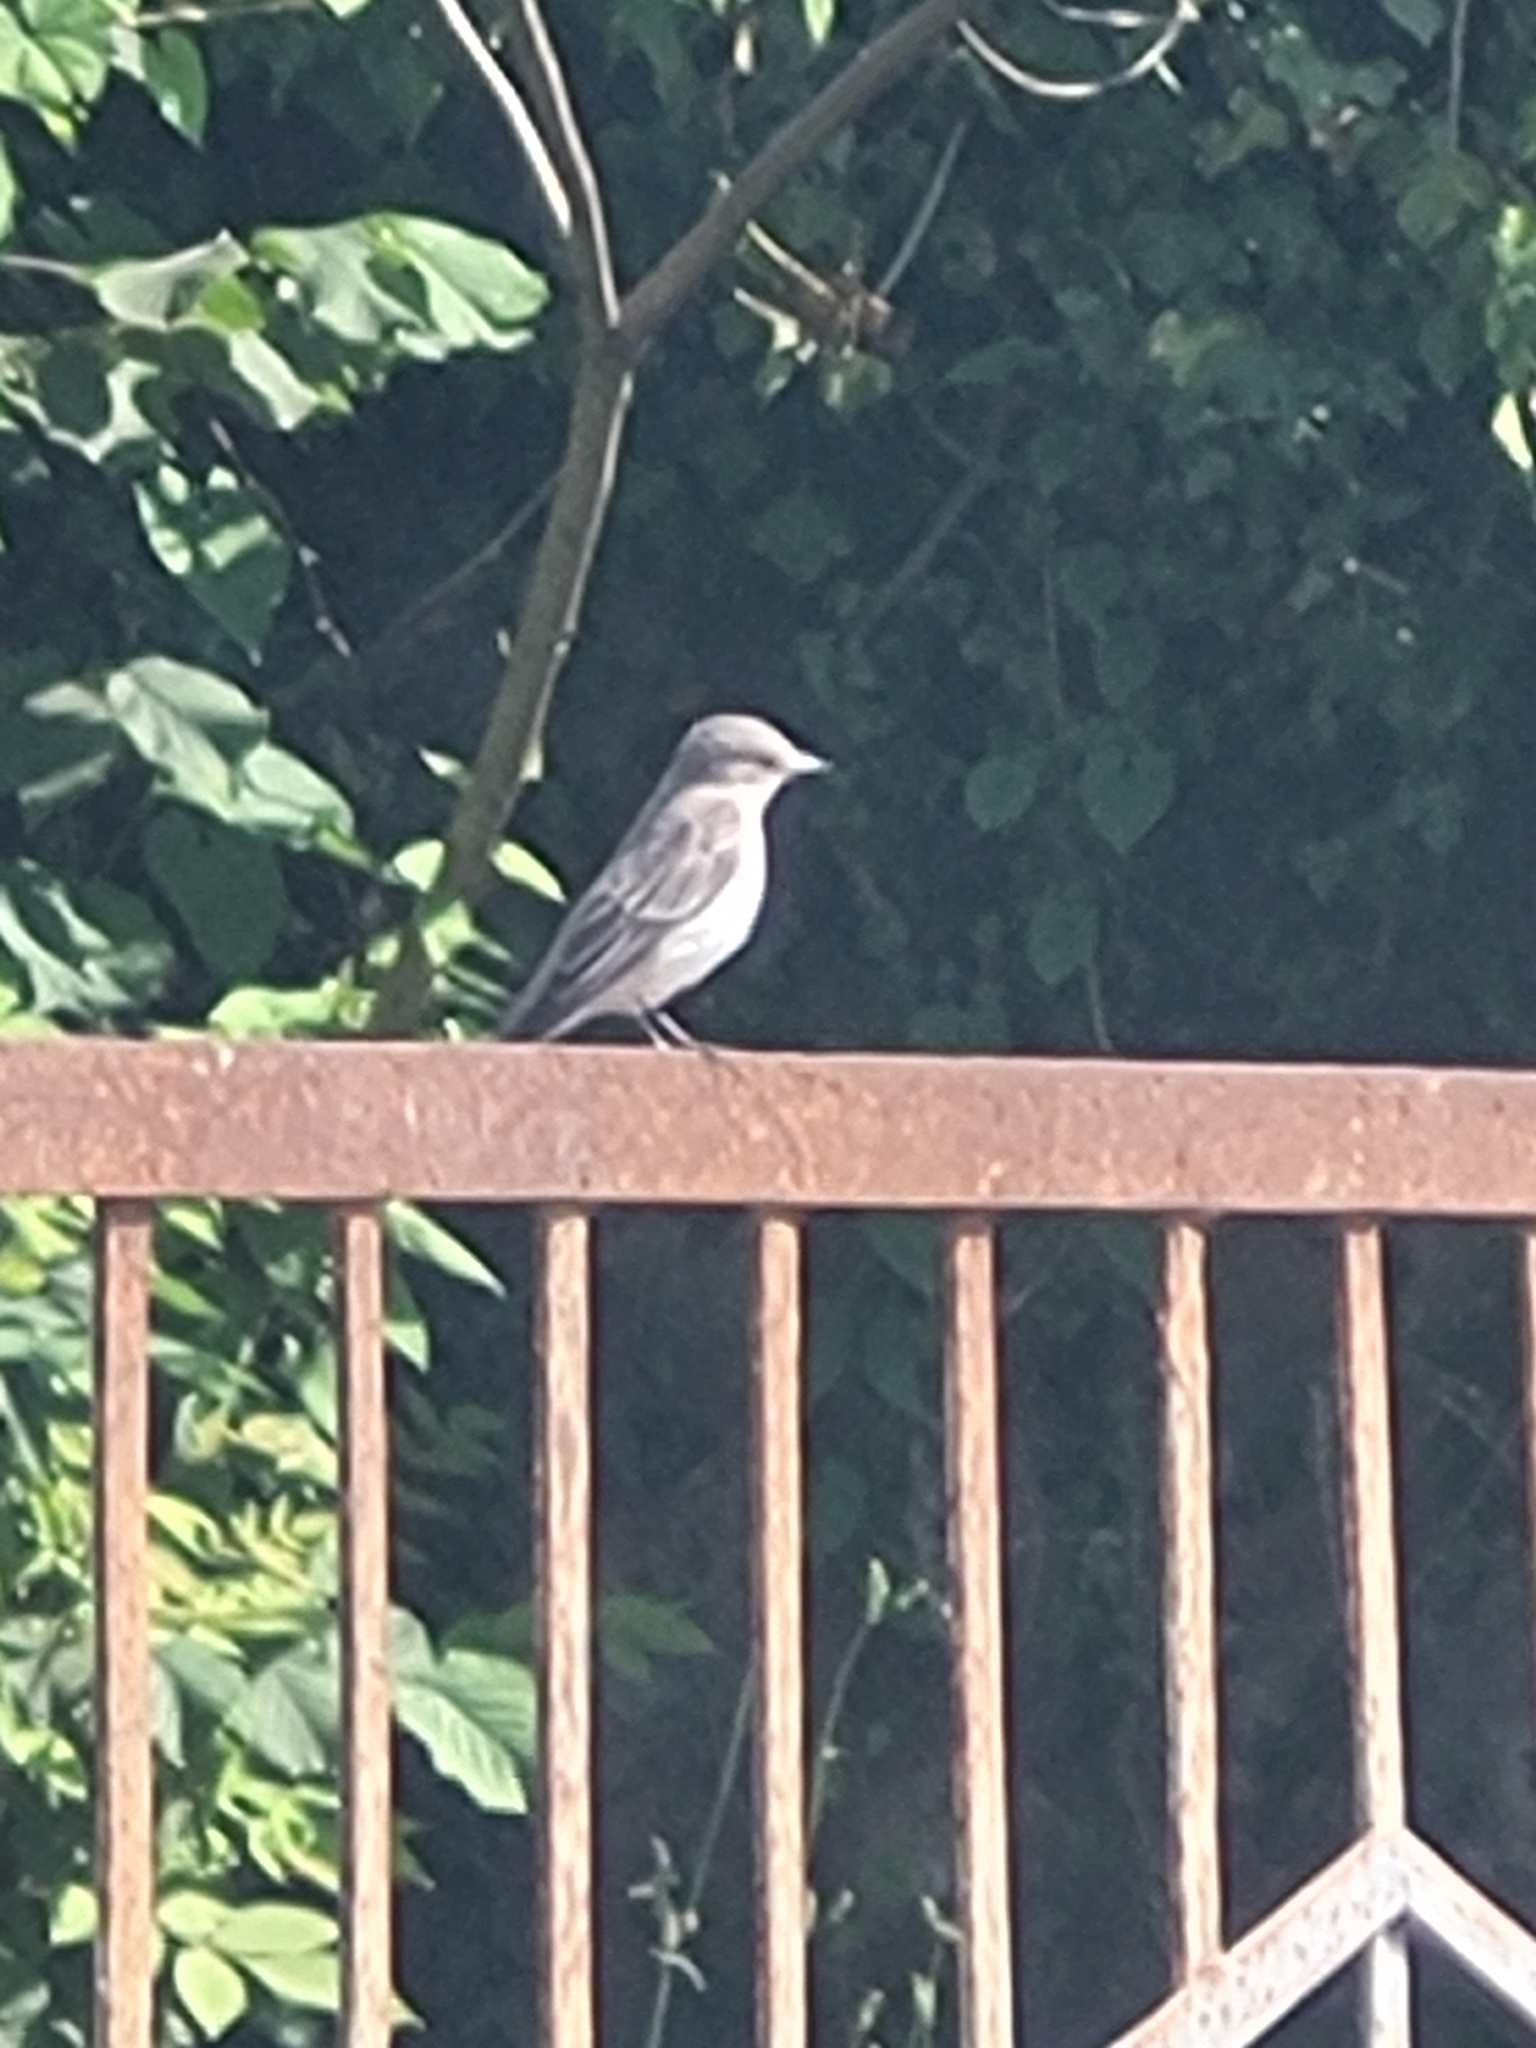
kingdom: Animalia
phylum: Chordata
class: Aves
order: Passeriformes
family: Muscicapidae
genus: Muscicapa
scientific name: Muscicapa striata
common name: Spotted flycatcher
